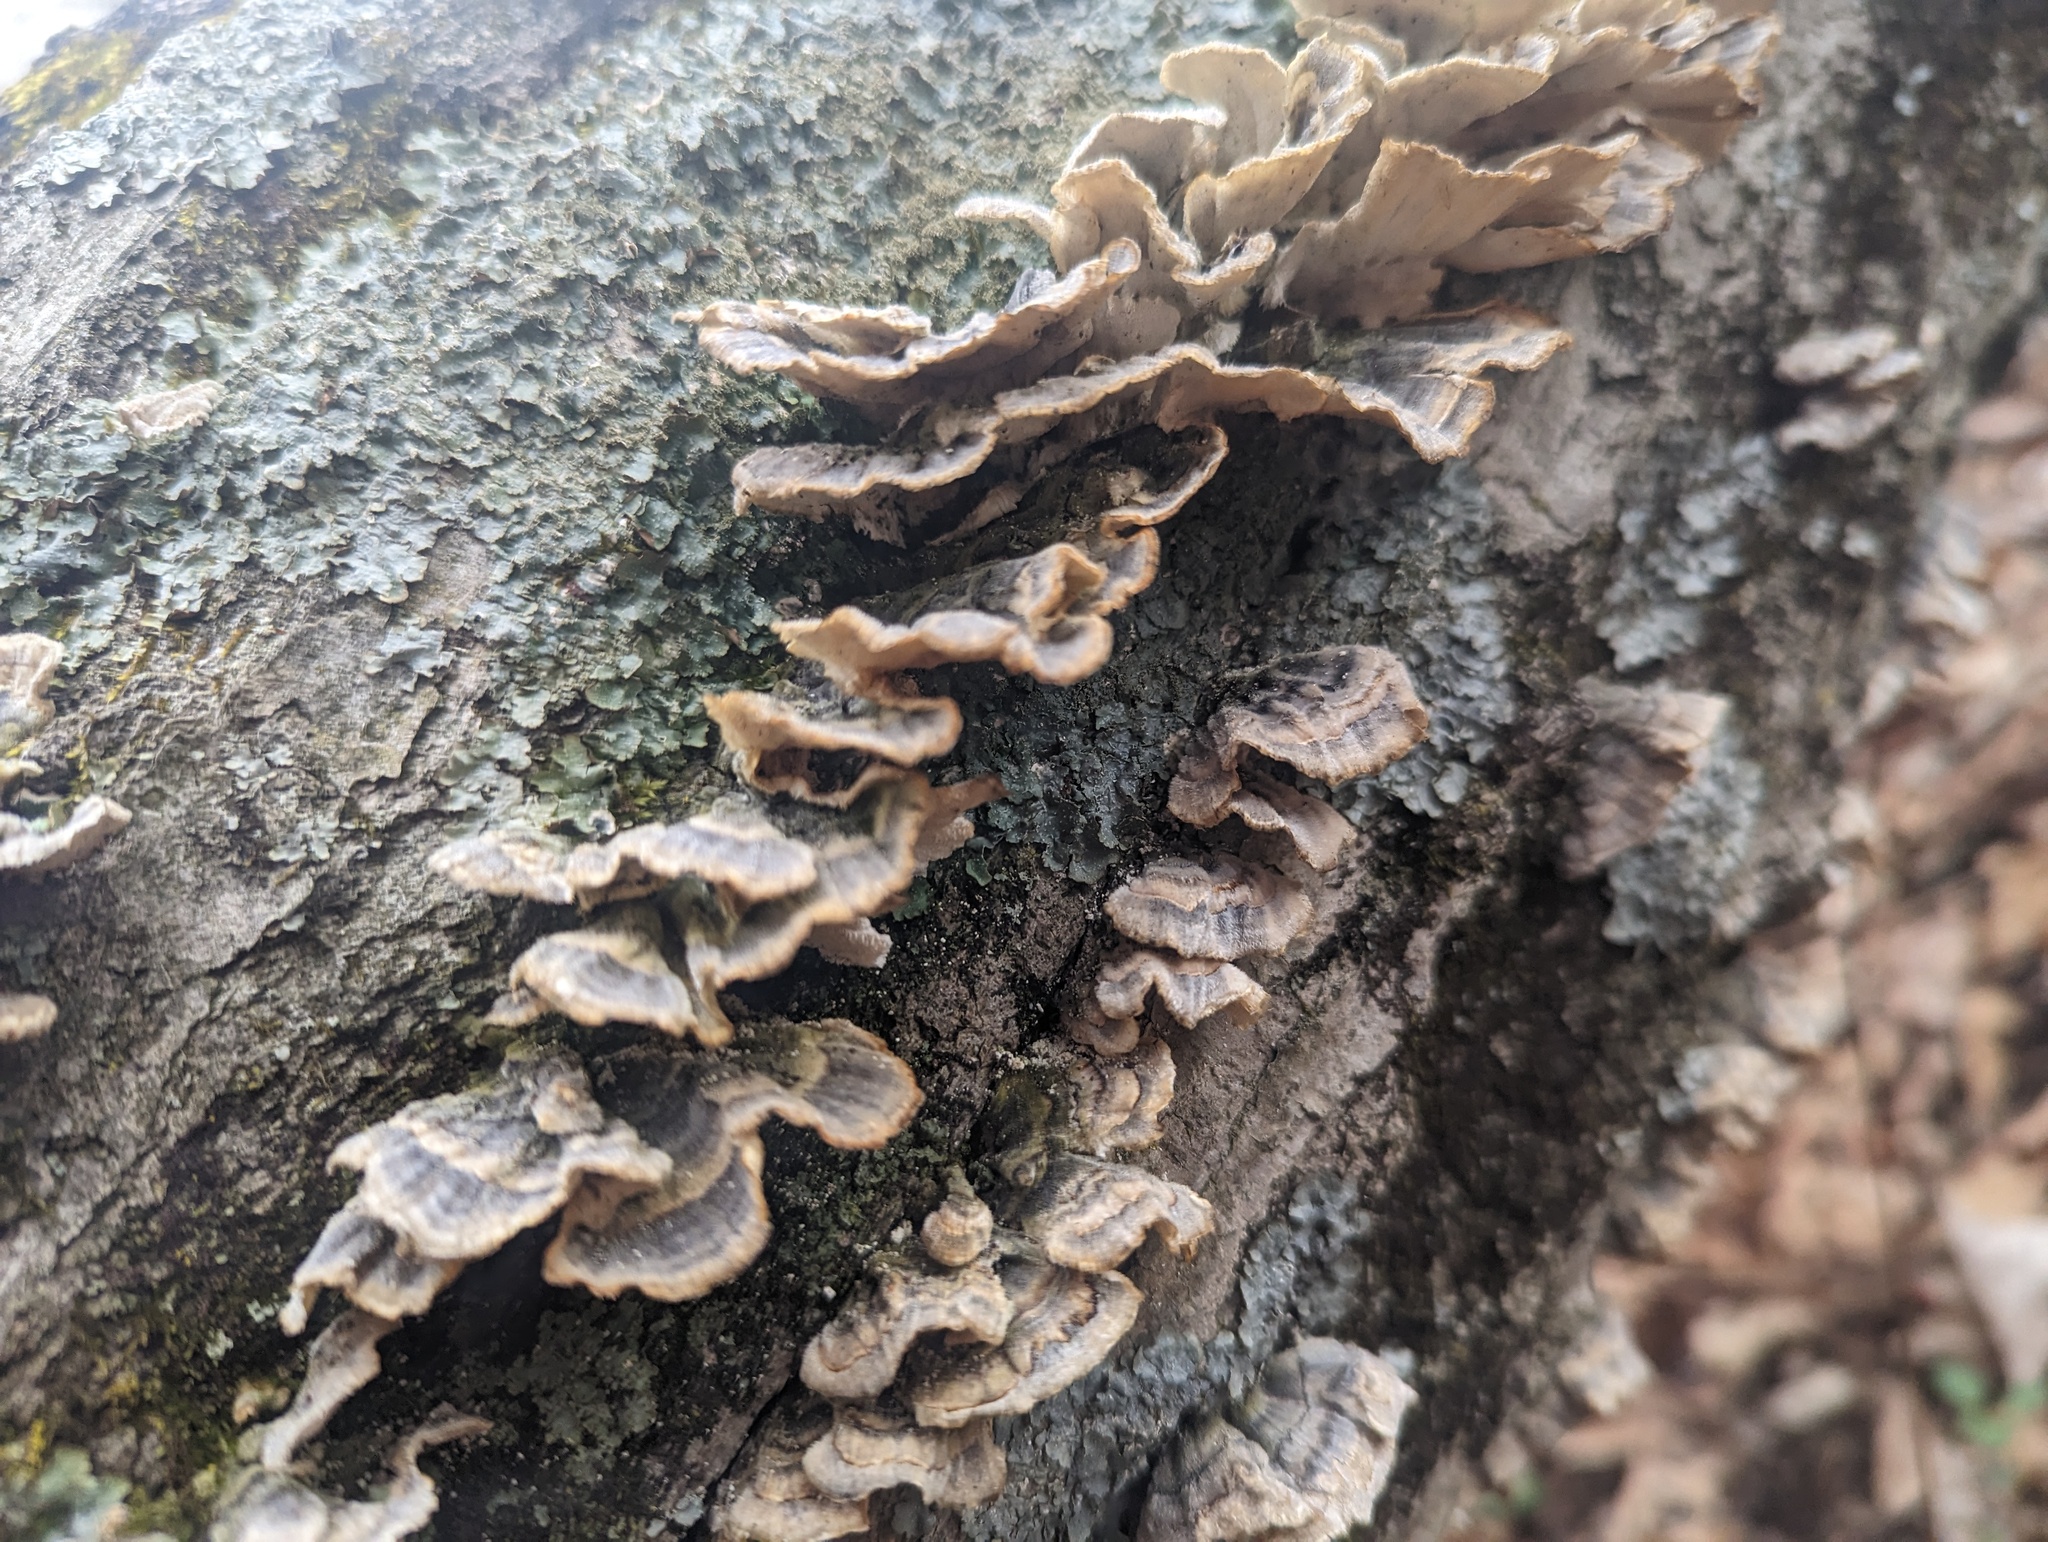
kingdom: Fungi
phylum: Basidiomycota
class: Agaricomycetes
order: Polyporales
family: Polyporaceae
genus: Trametes
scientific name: Trametes versicolor
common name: Turkeytail
